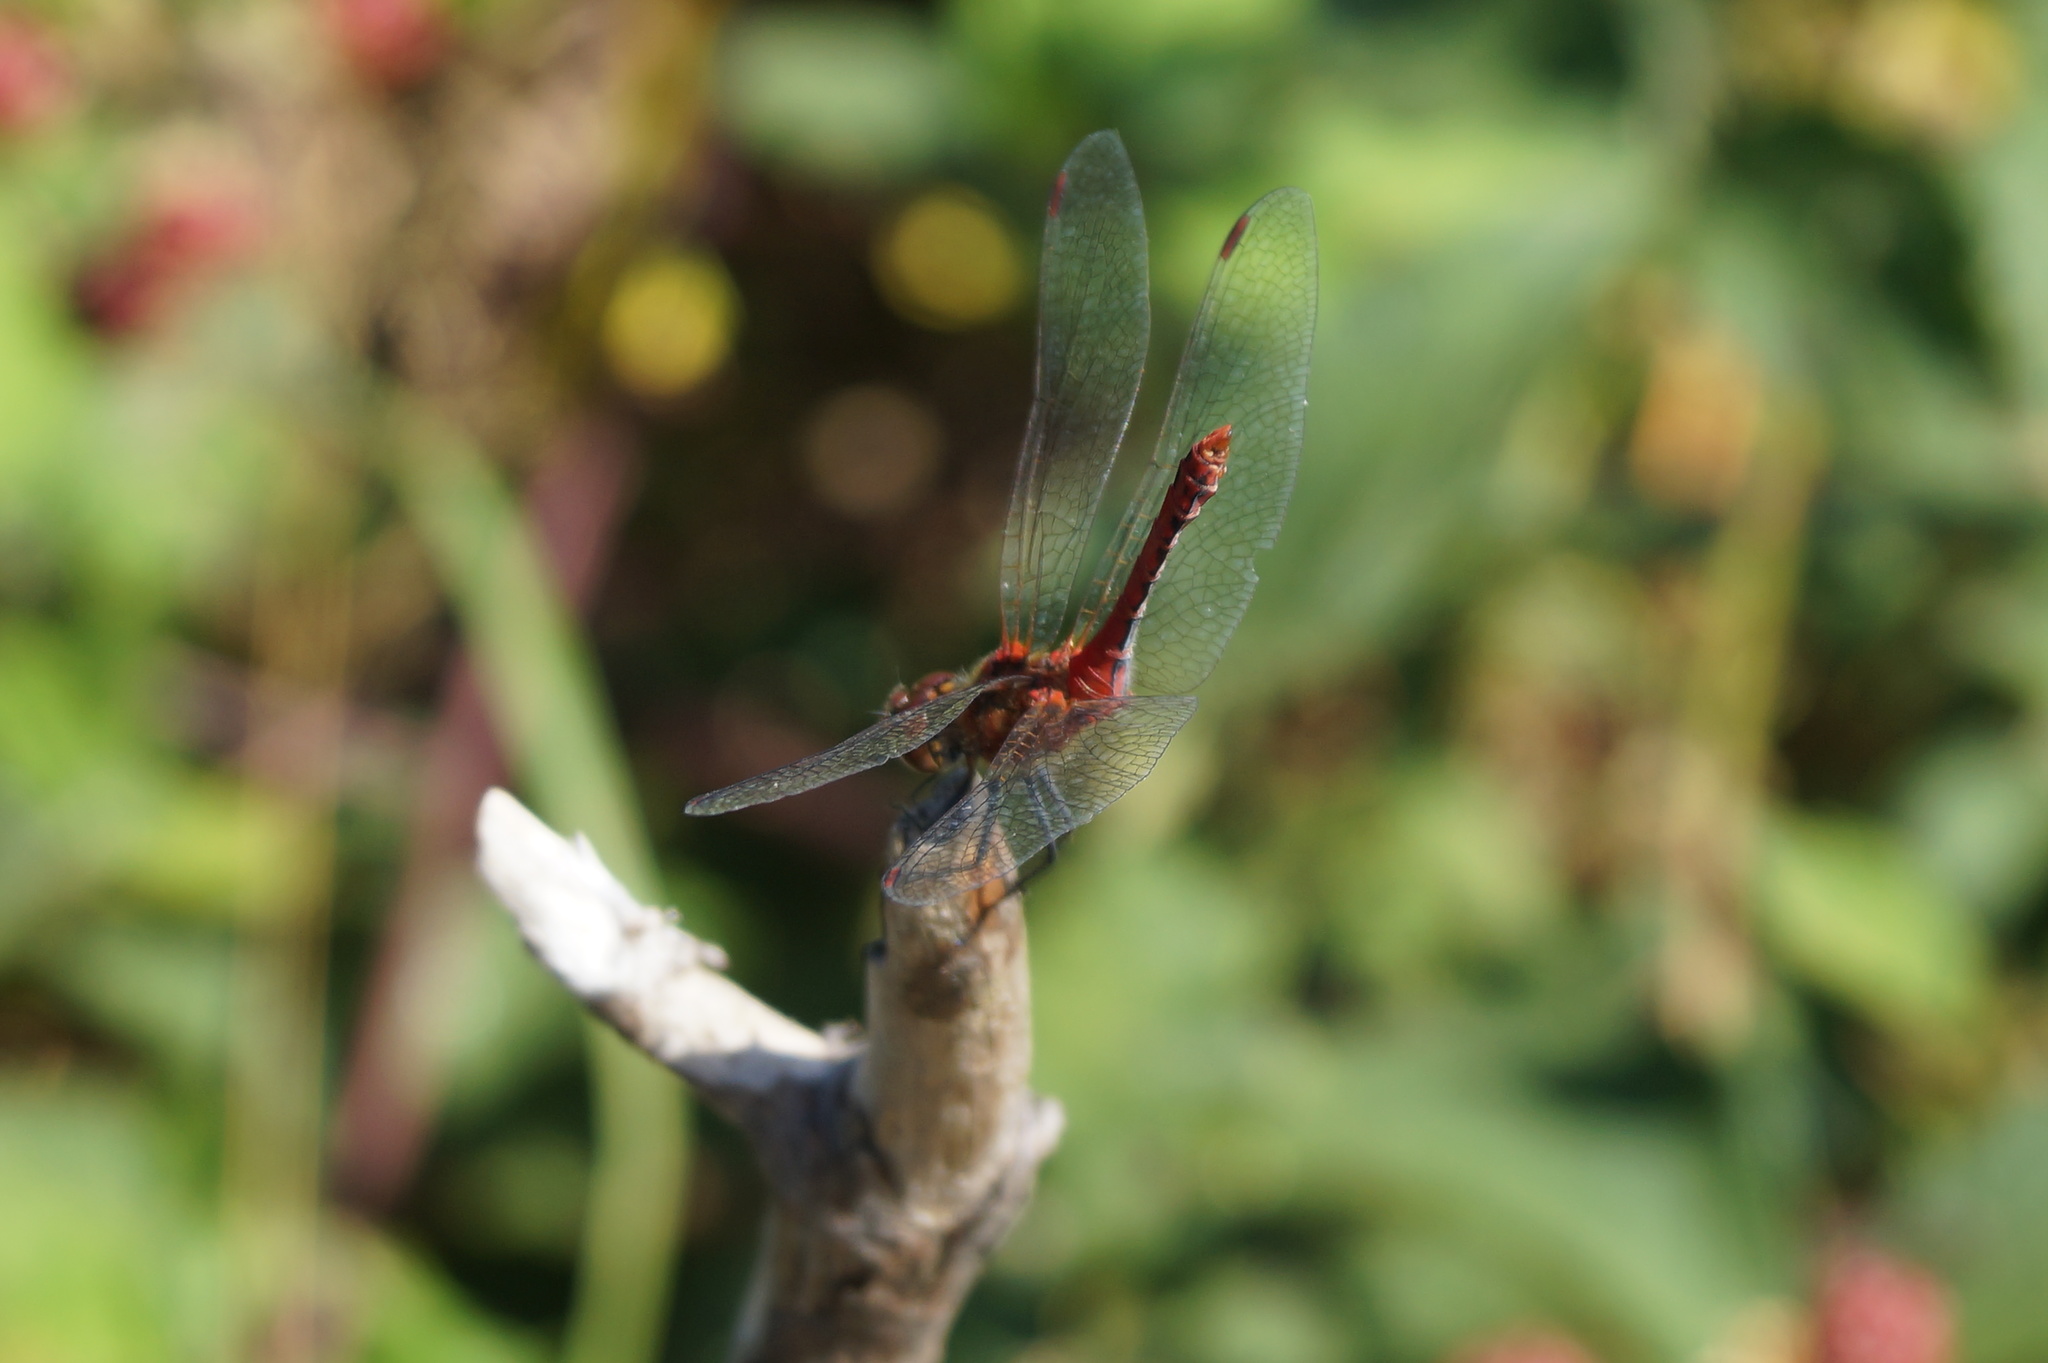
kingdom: Animalia
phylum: Arthropoda
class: Insecta
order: Odonata
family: Libellulidae
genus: Sympetrum
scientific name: Sympetrum sanguineum
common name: Ruddy darter
